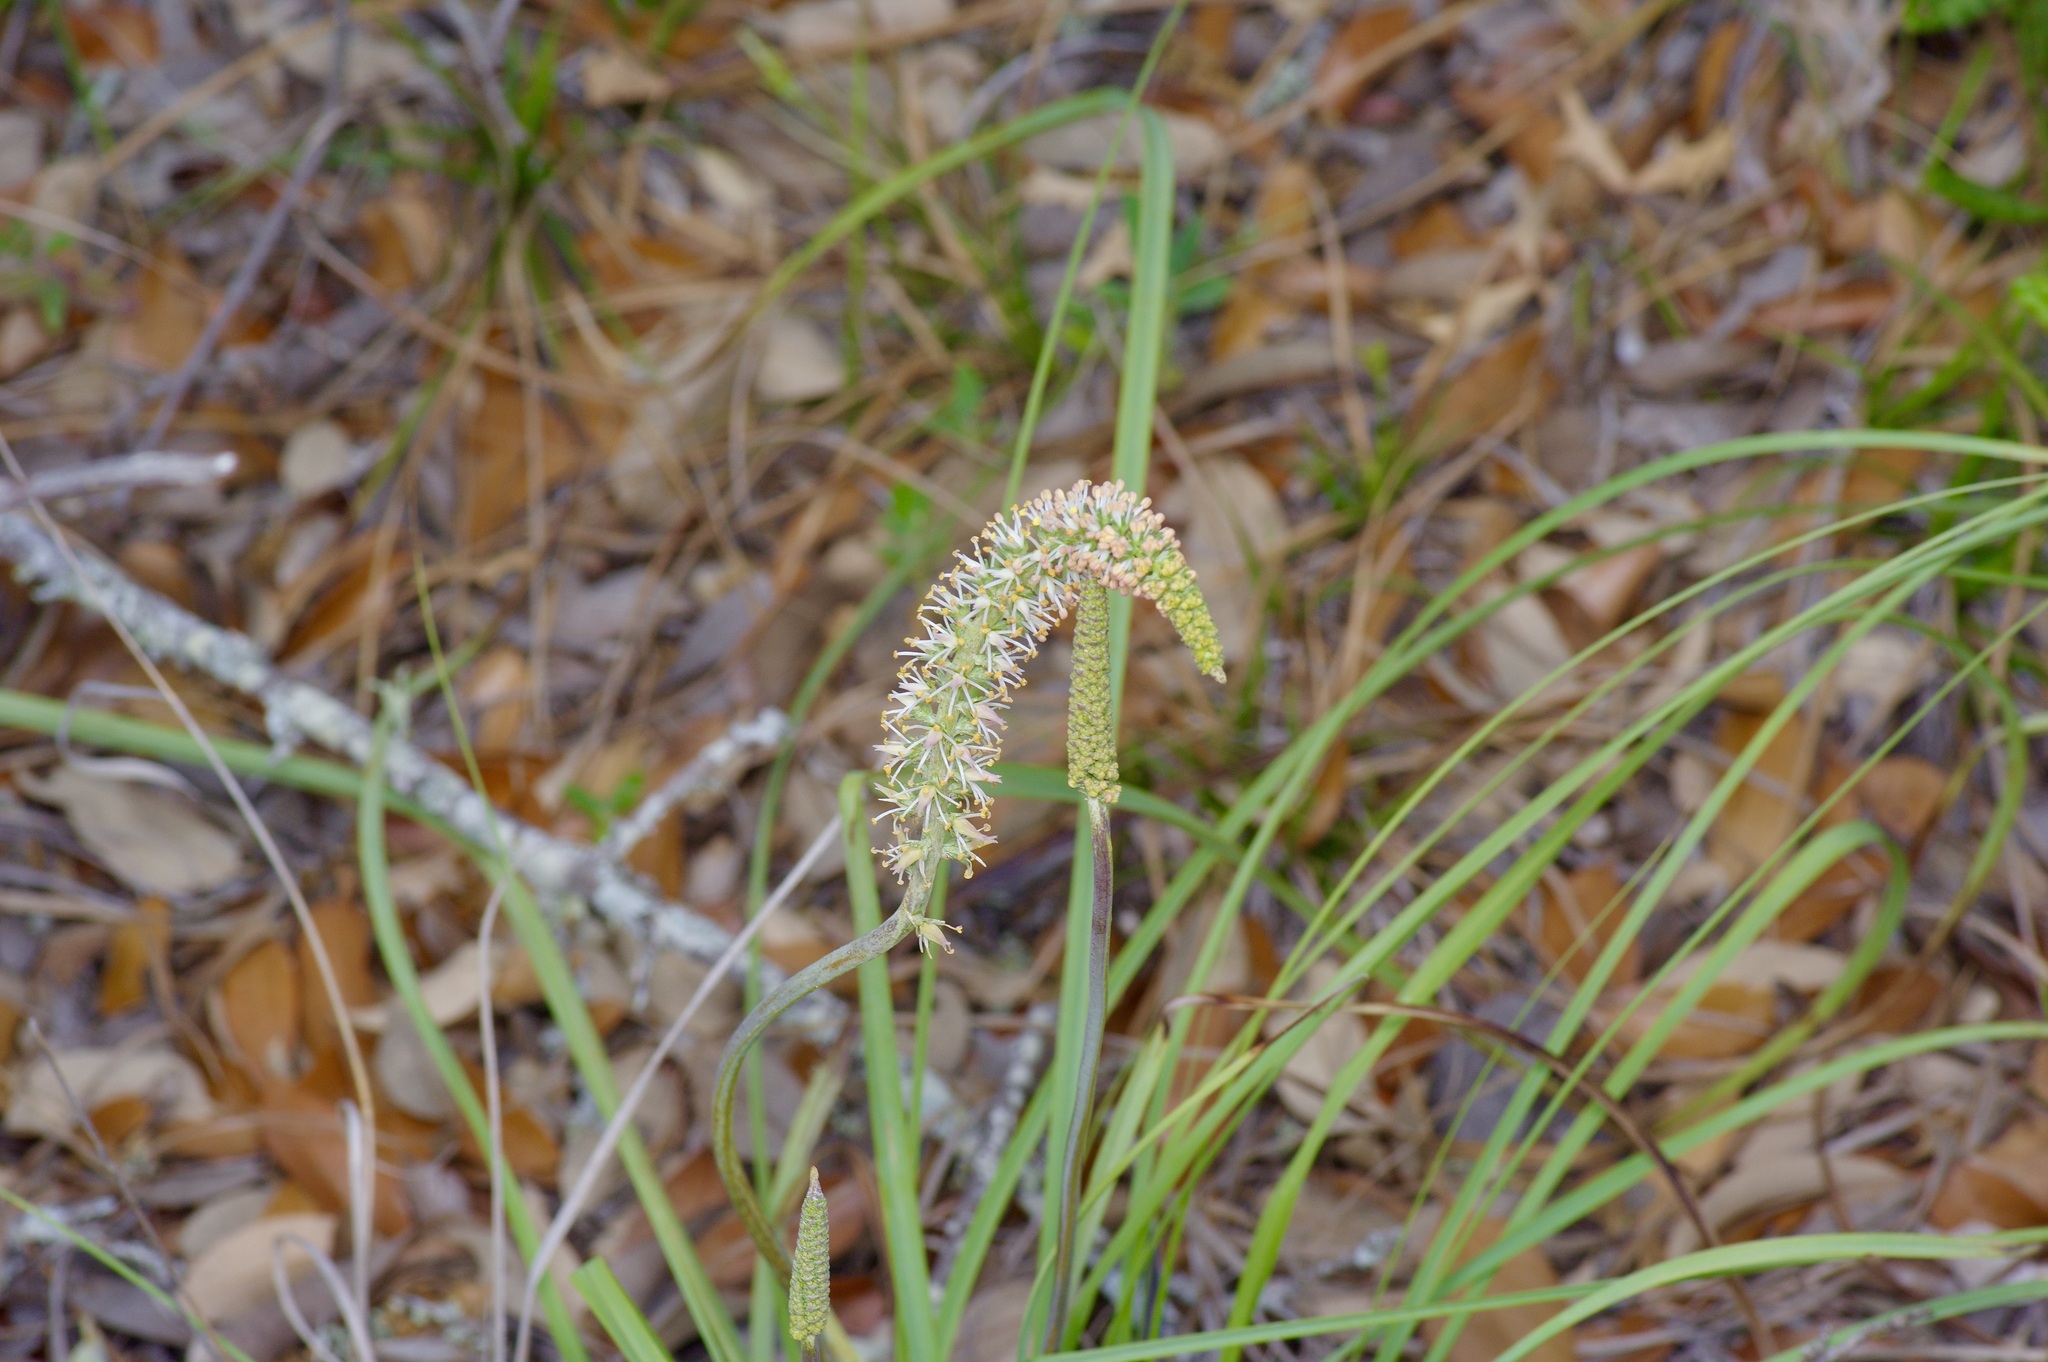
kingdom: Plantae
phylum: Tracheophyta
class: Liliopsida
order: Liliales
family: Melanthiaceae
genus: Schoenocaulon
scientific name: Schoenocaulon texanum
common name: Texas feather-shank
